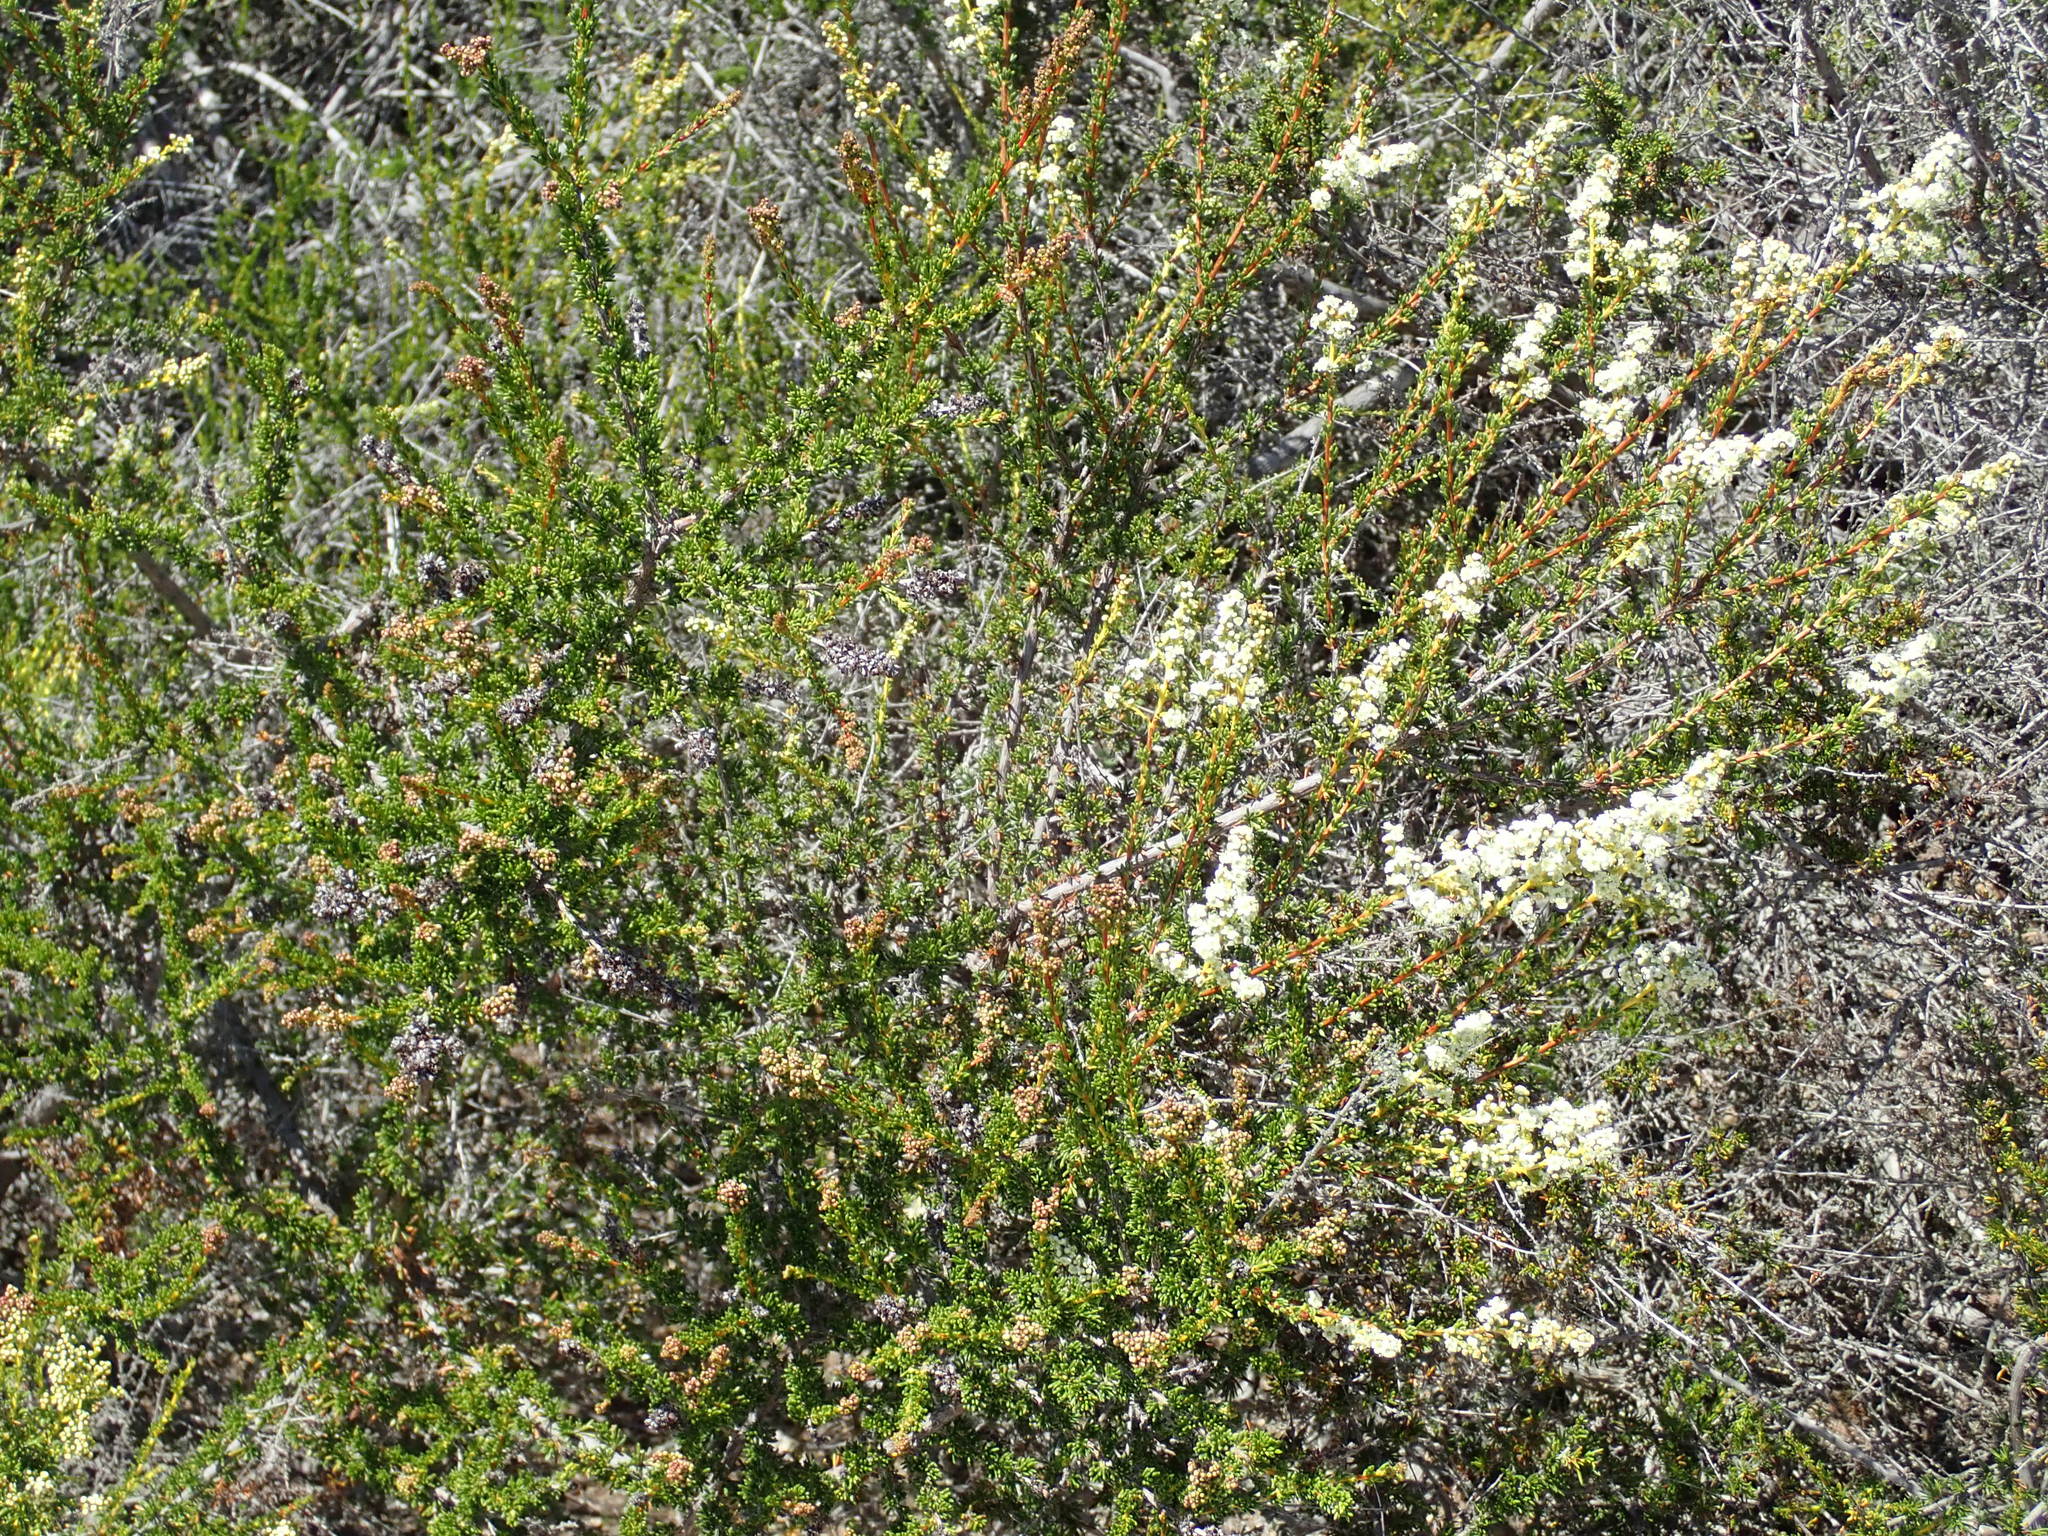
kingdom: Plantae
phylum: Tracheophyta
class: Magnoliopsida
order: Rosales
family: Rosaceae
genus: Adenostoma
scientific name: Adenostoma fasciculatum
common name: Chamise
